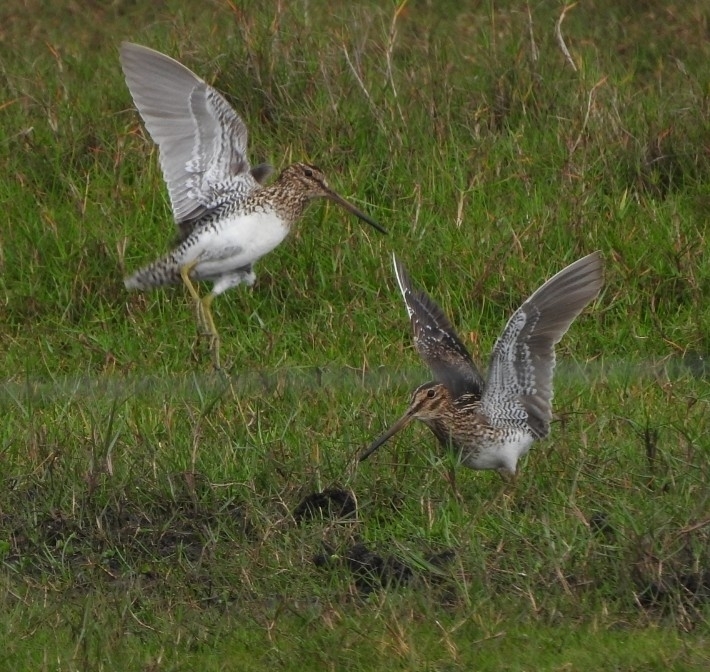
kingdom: Animalia
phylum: Chordata
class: Aves
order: Charadriiformes
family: Scolopacidae
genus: Gallinago
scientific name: Gallinago paraguaiae
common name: South american snipe
